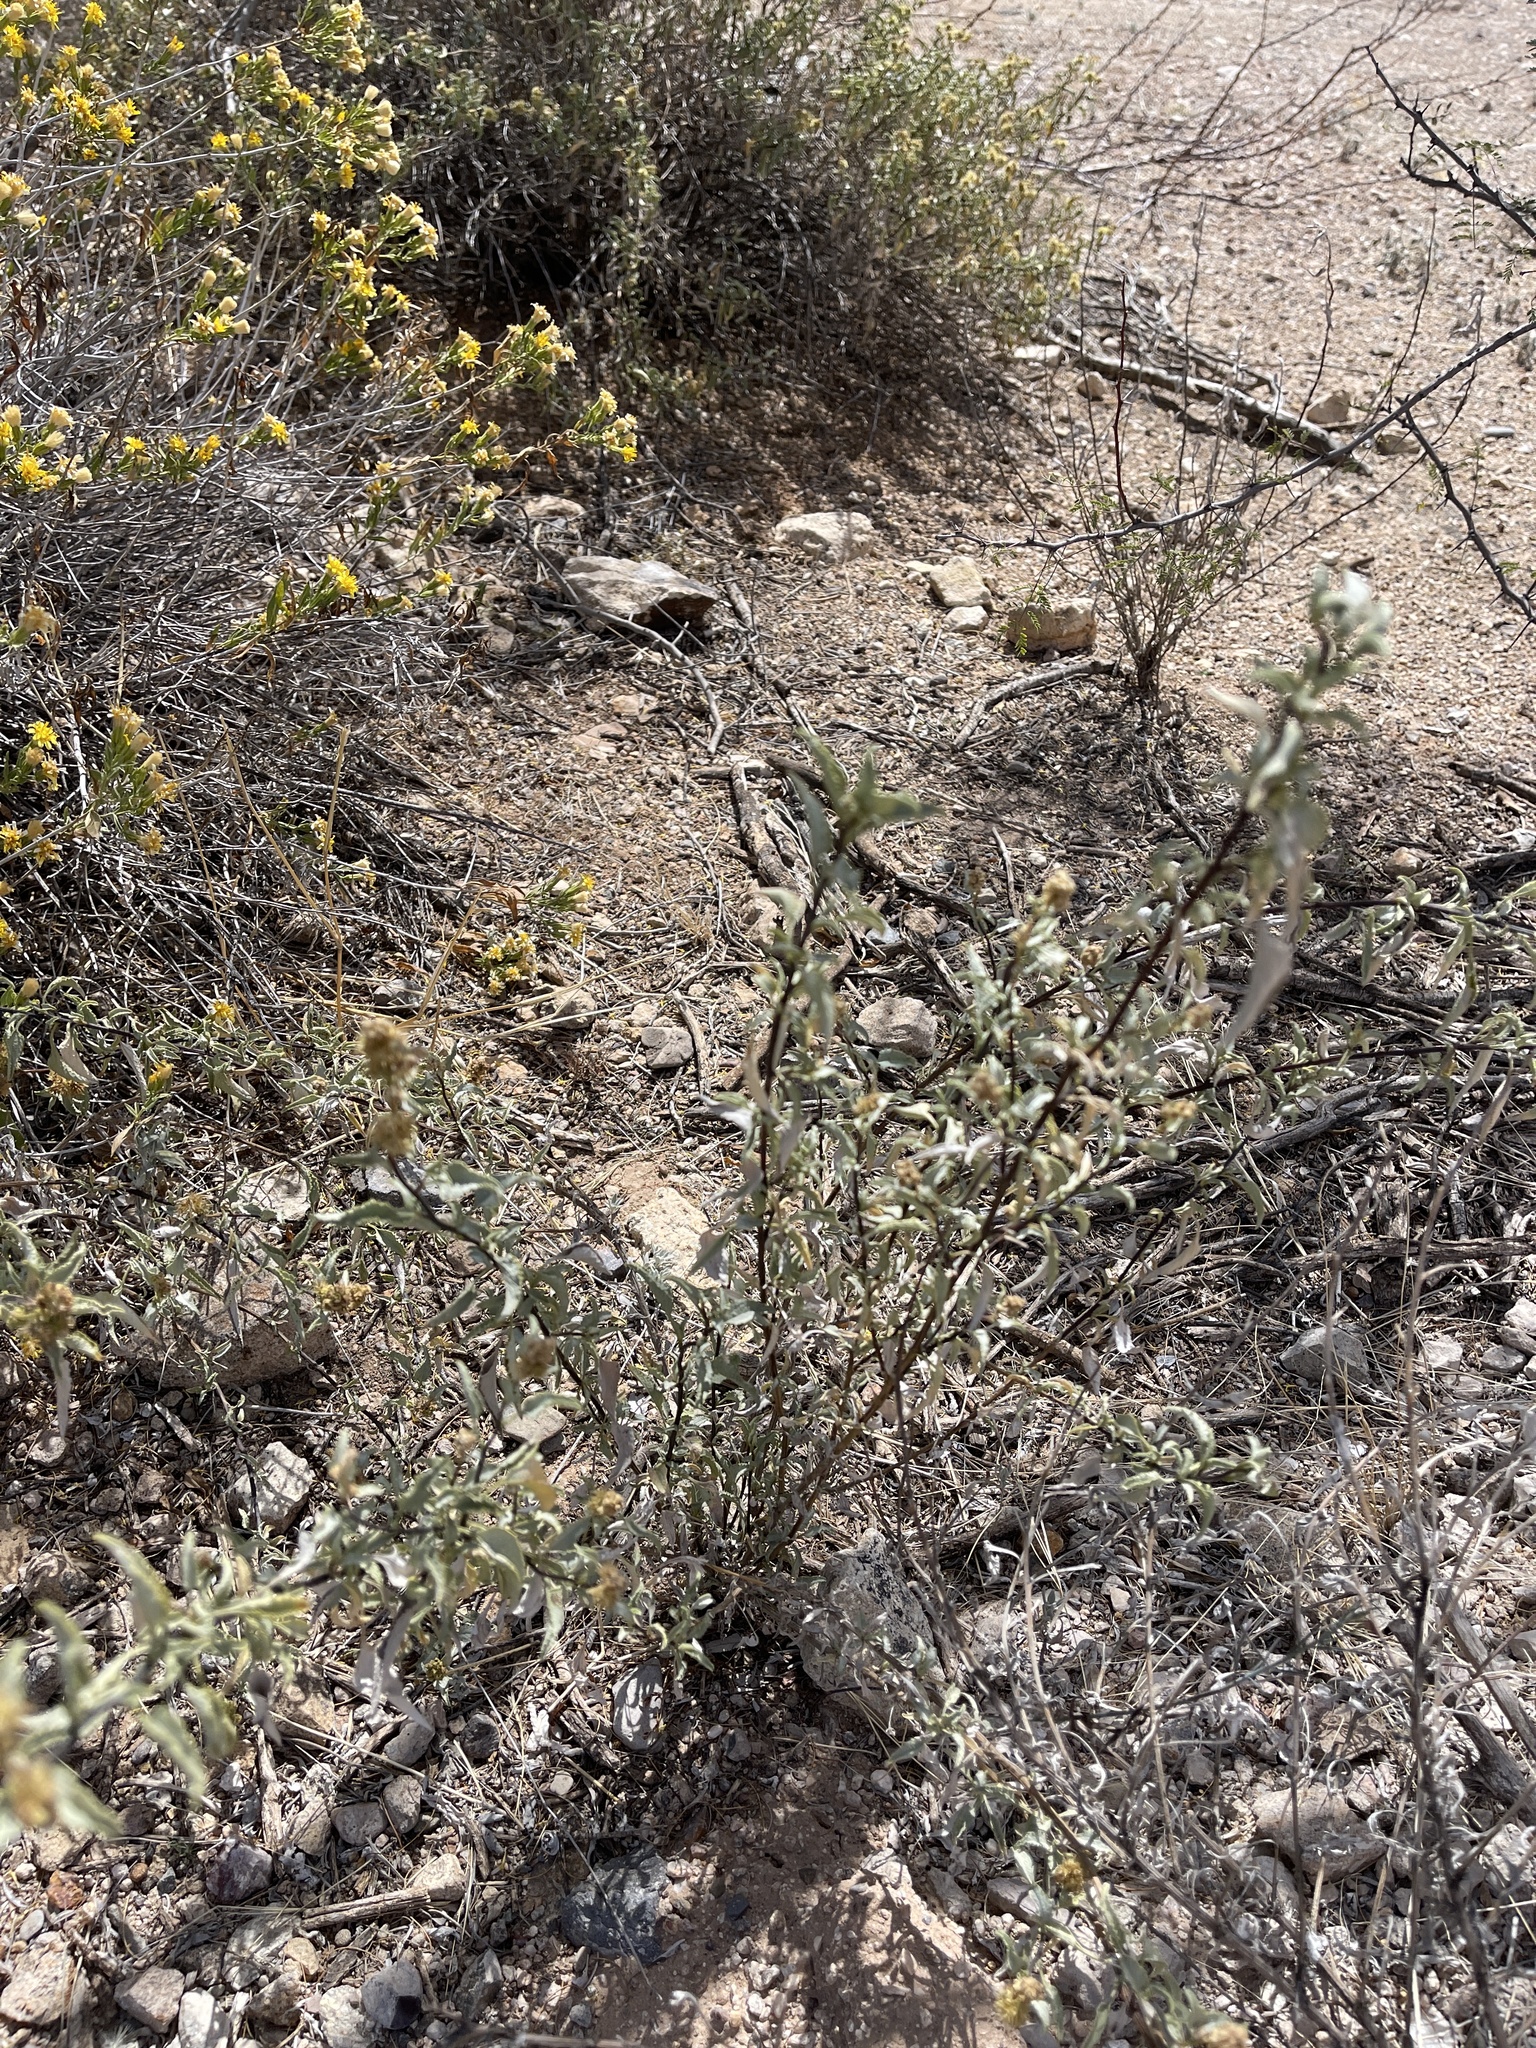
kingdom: Plantae
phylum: Tracheophyta
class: Magnoliopsida
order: Asterales
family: Asteraceae
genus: Ambrosia
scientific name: Ambrosia deltoidea
